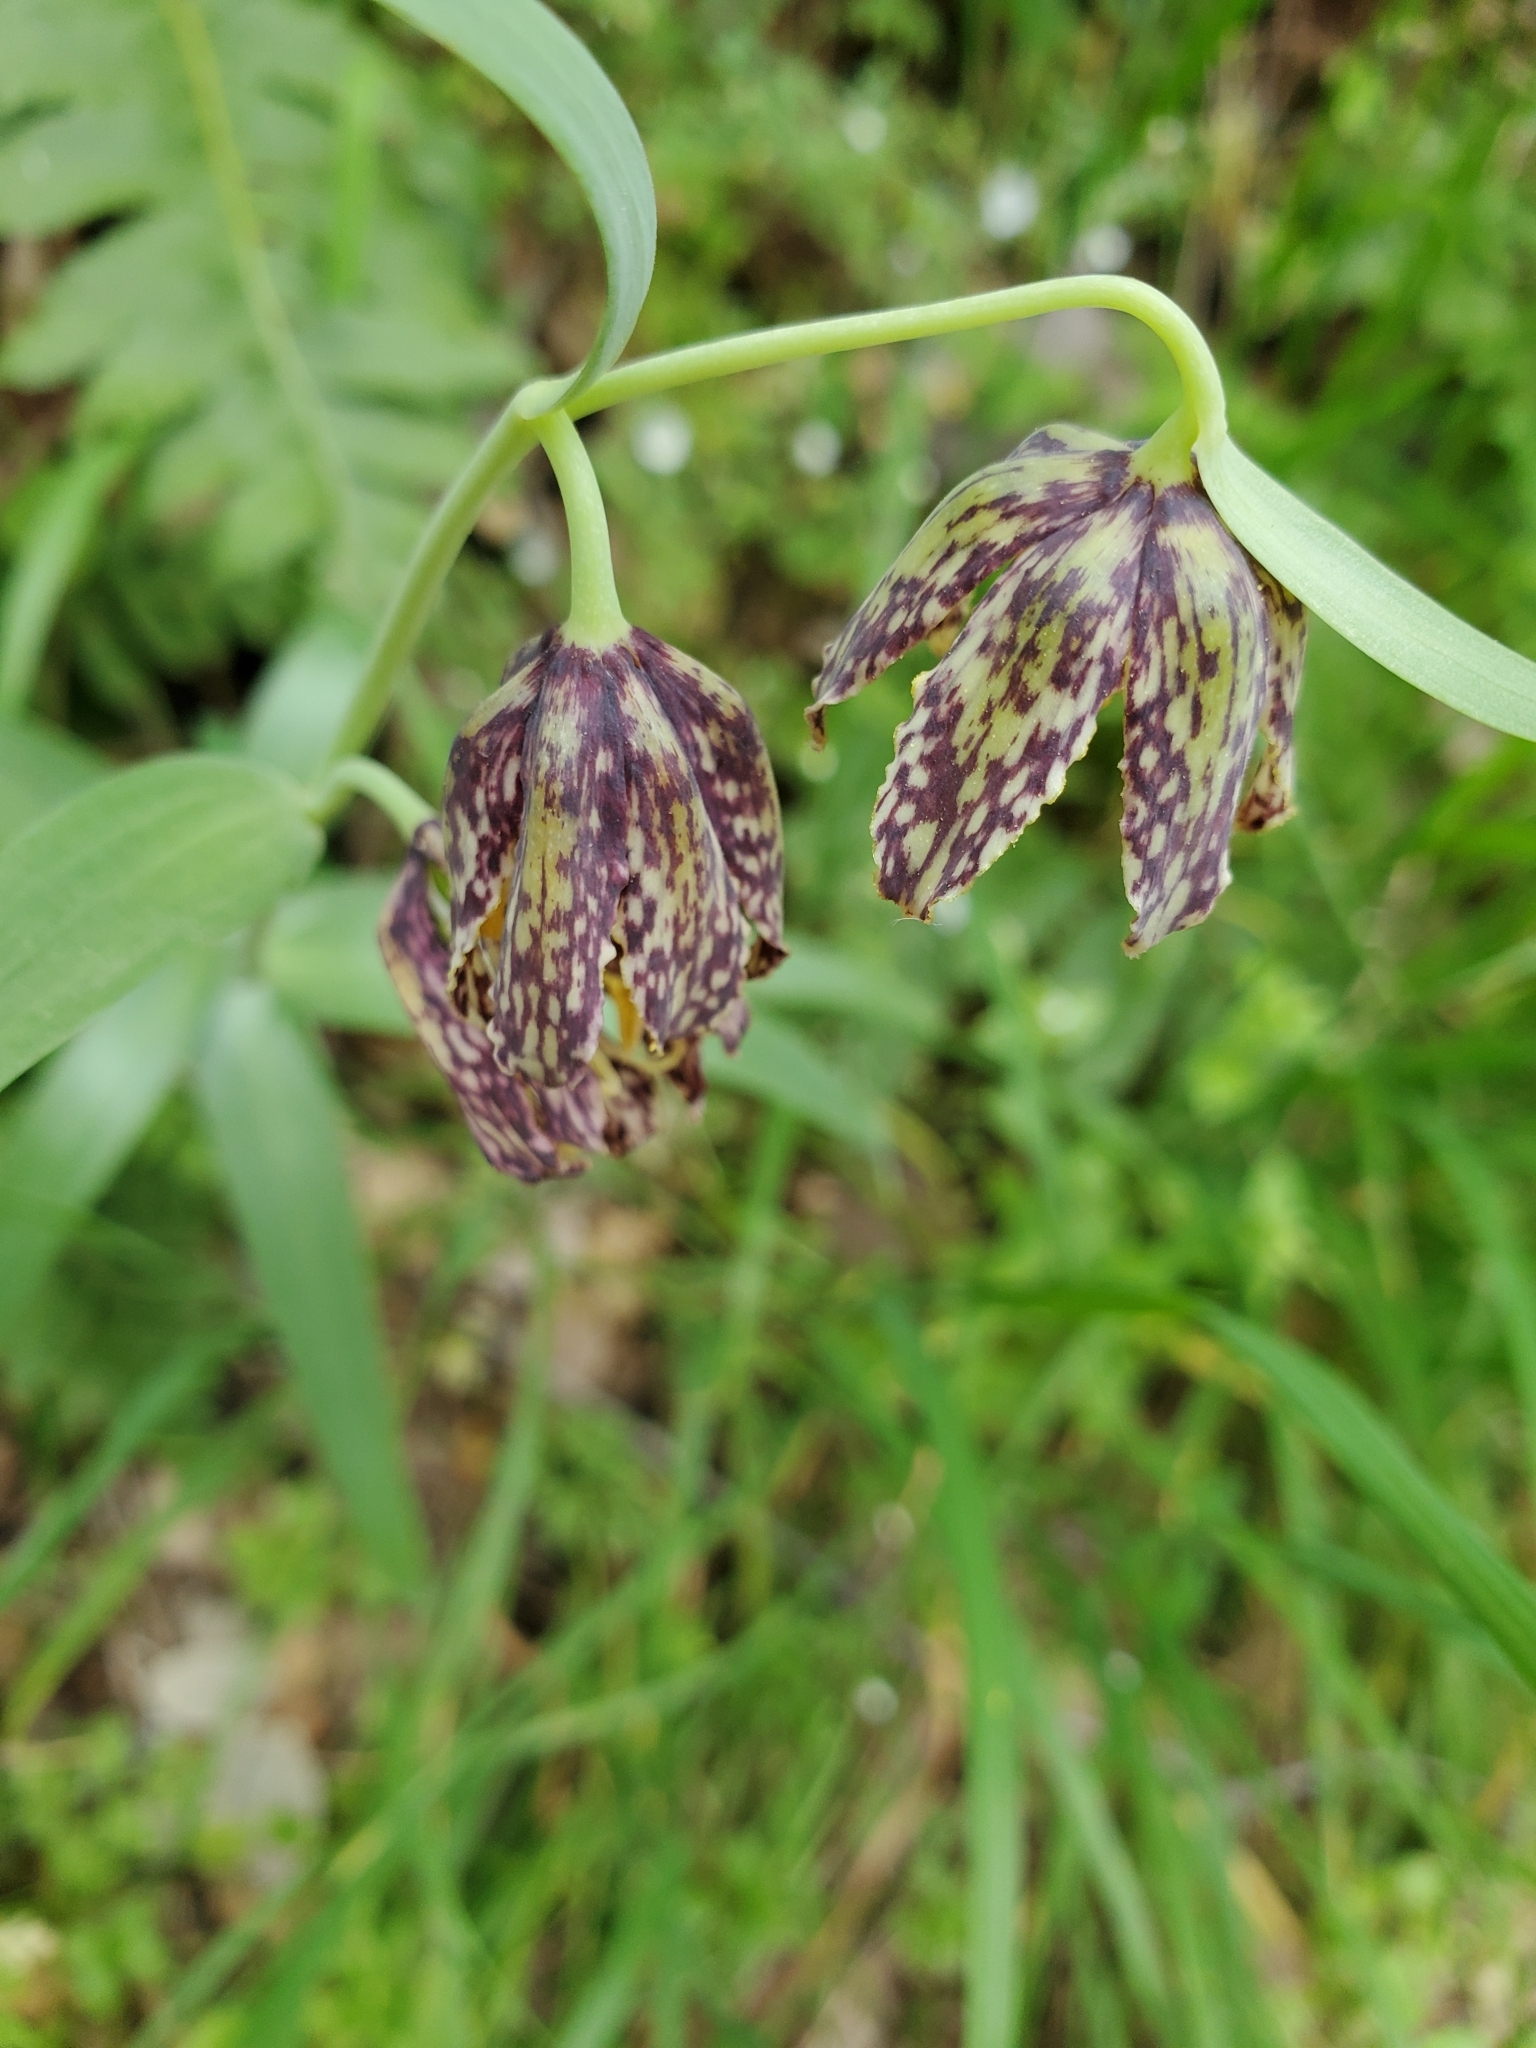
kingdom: Plantae
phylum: Tracheophyta
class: Liliopsida
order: Liliales
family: Liliaceae
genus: Fritillaria
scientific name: Fritillaria affinis
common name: Ojai fritillary
